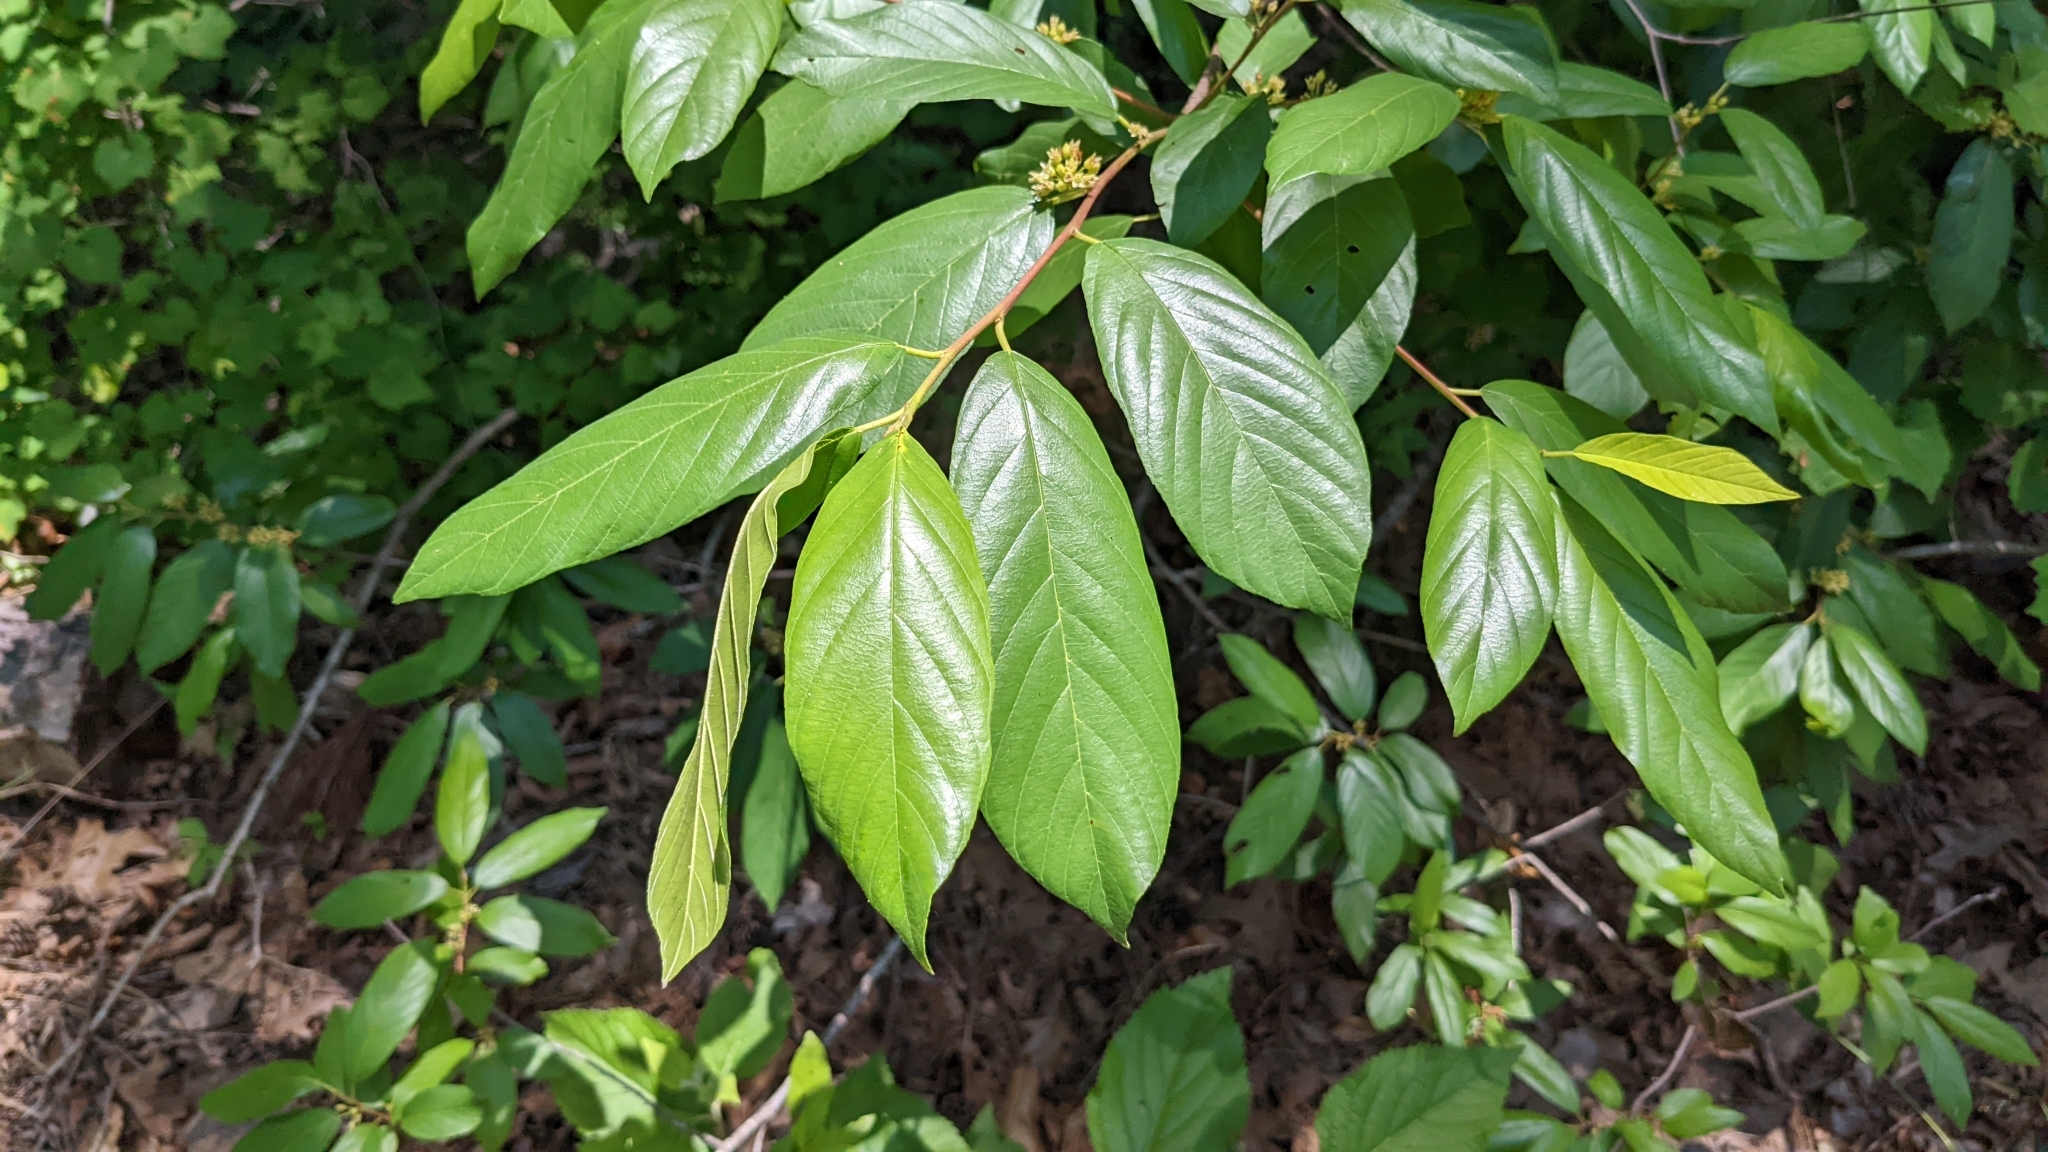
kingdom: Plantae
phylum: Tracheophyta
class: Magnoliopsida
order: Rosales
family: Rhamnaceae
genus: Frangula
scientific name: Frangula caroliniana
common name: Carolina buckthorn
